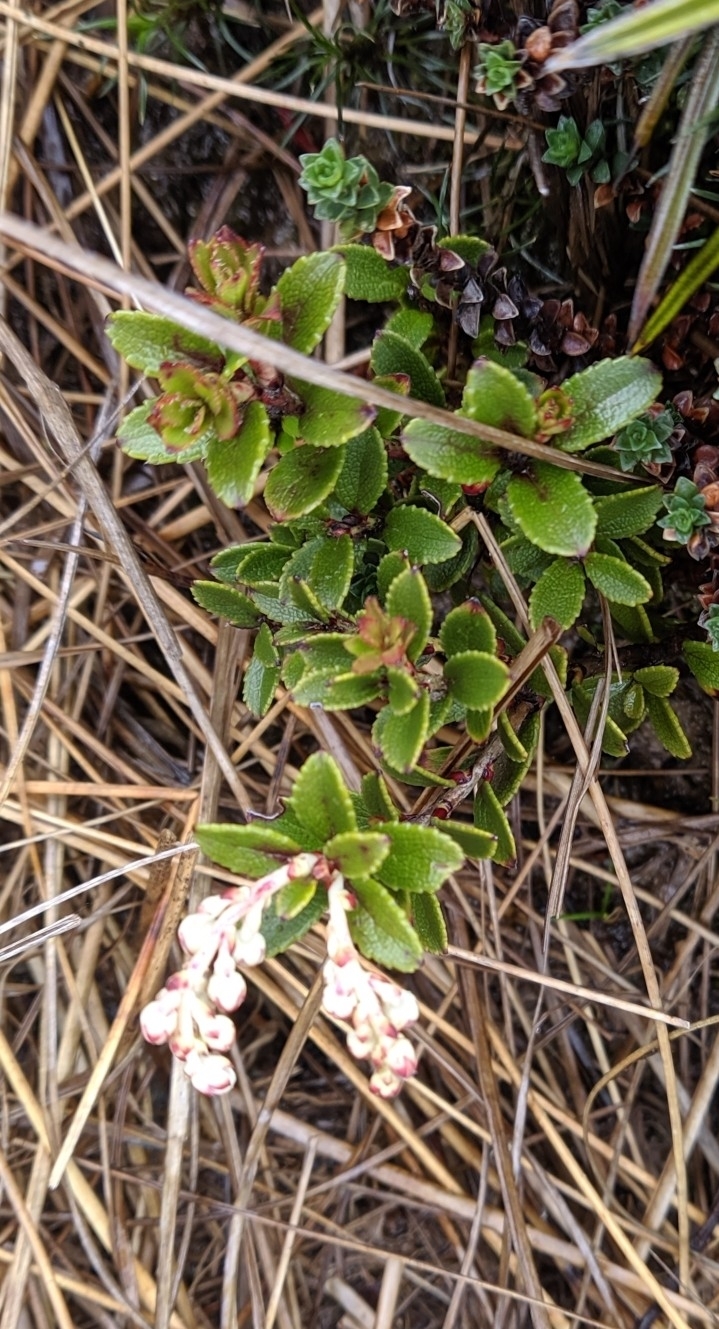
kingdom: Plantae
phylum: Tracheophyta
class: Magnoliopsida
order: Ericales
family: Ericaceae
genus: Gaultheria
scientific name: Gaultheria crassa
